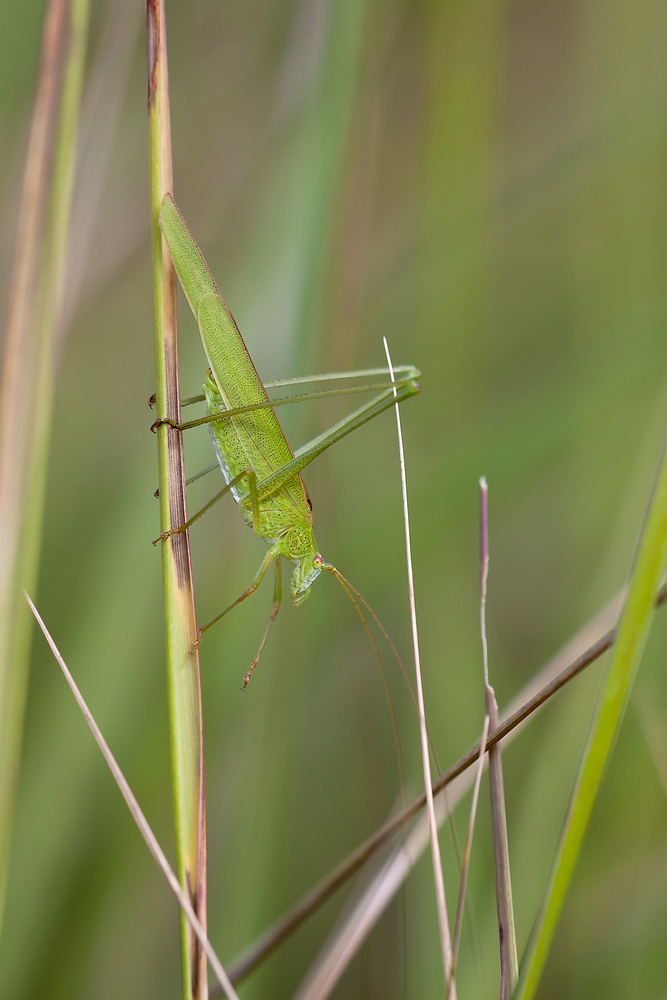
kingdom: Animalia
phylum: Arthropoda
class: Insecta
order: Orthoptera
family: Tettigoniidae
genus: Phaneroptera
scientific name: Phaneroptera falcata
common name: Sickle-bearing bush-cricket
